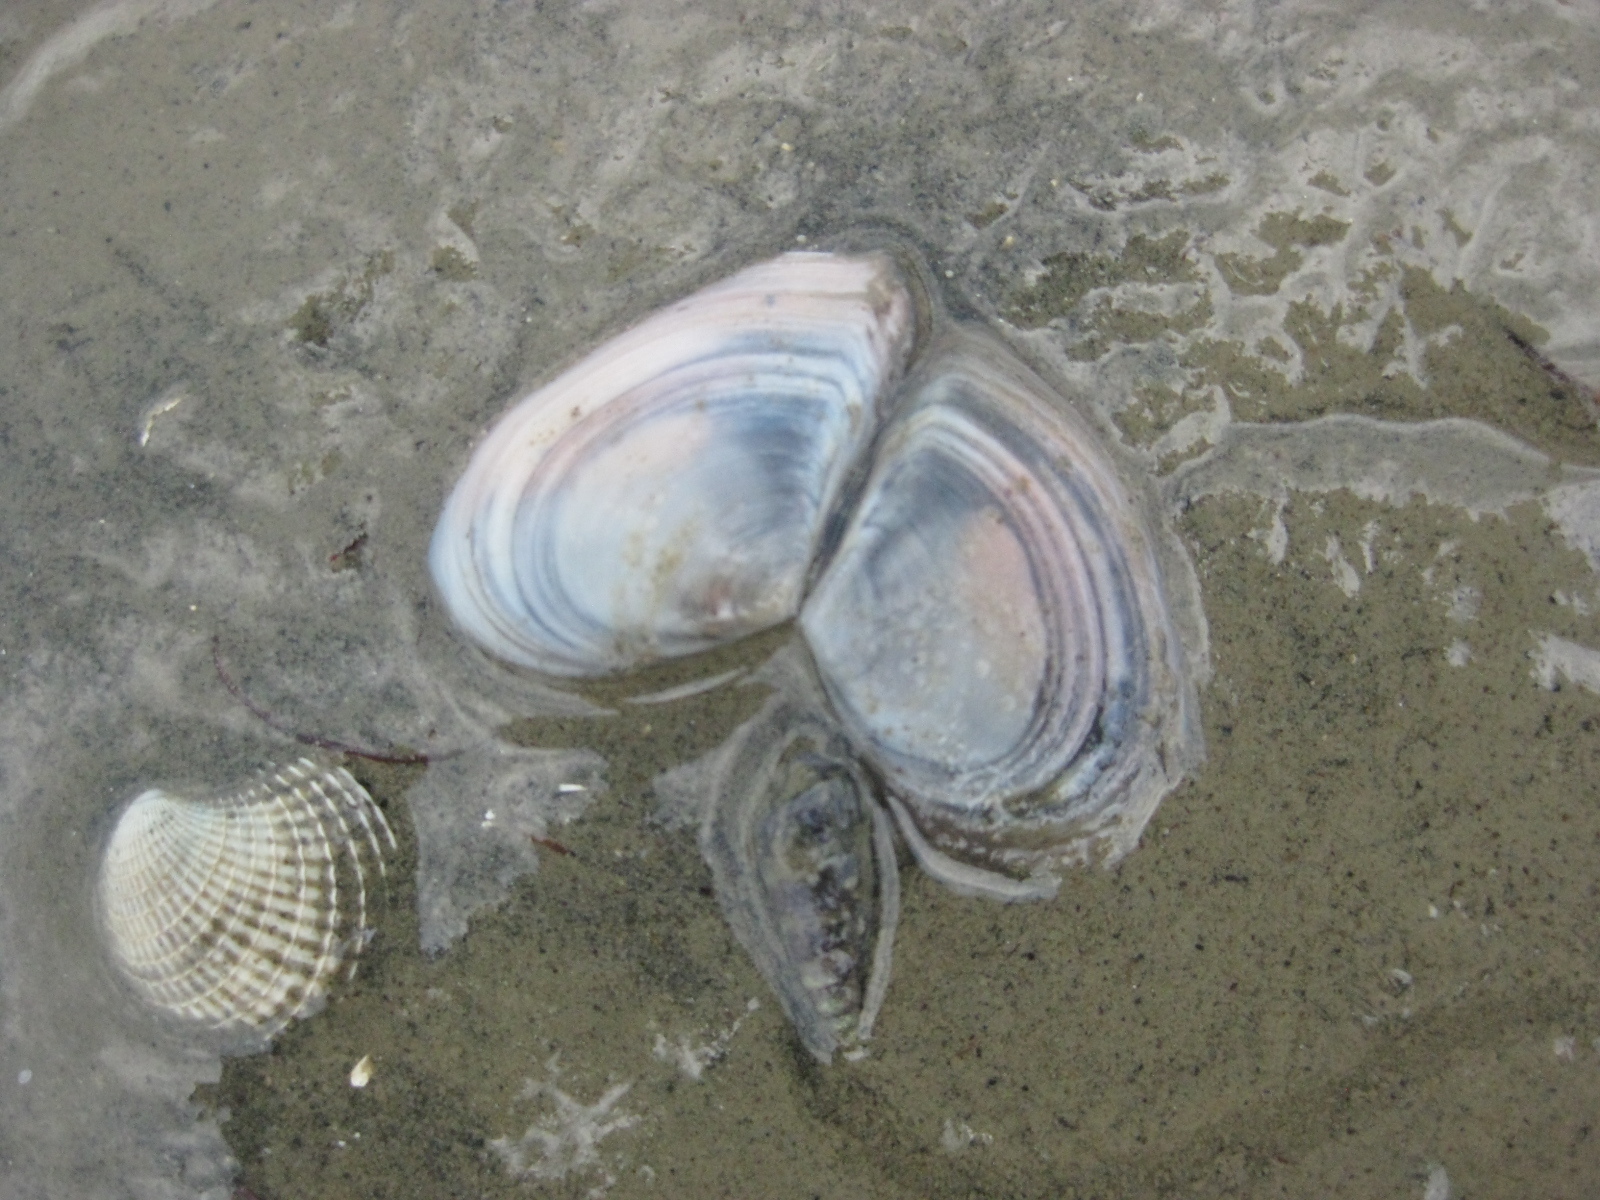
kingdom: Animalia
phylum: Mollusca
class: Bivalvia
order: Cardiida
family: Tellinidae
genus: Macomona
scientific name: Macomona liliana
